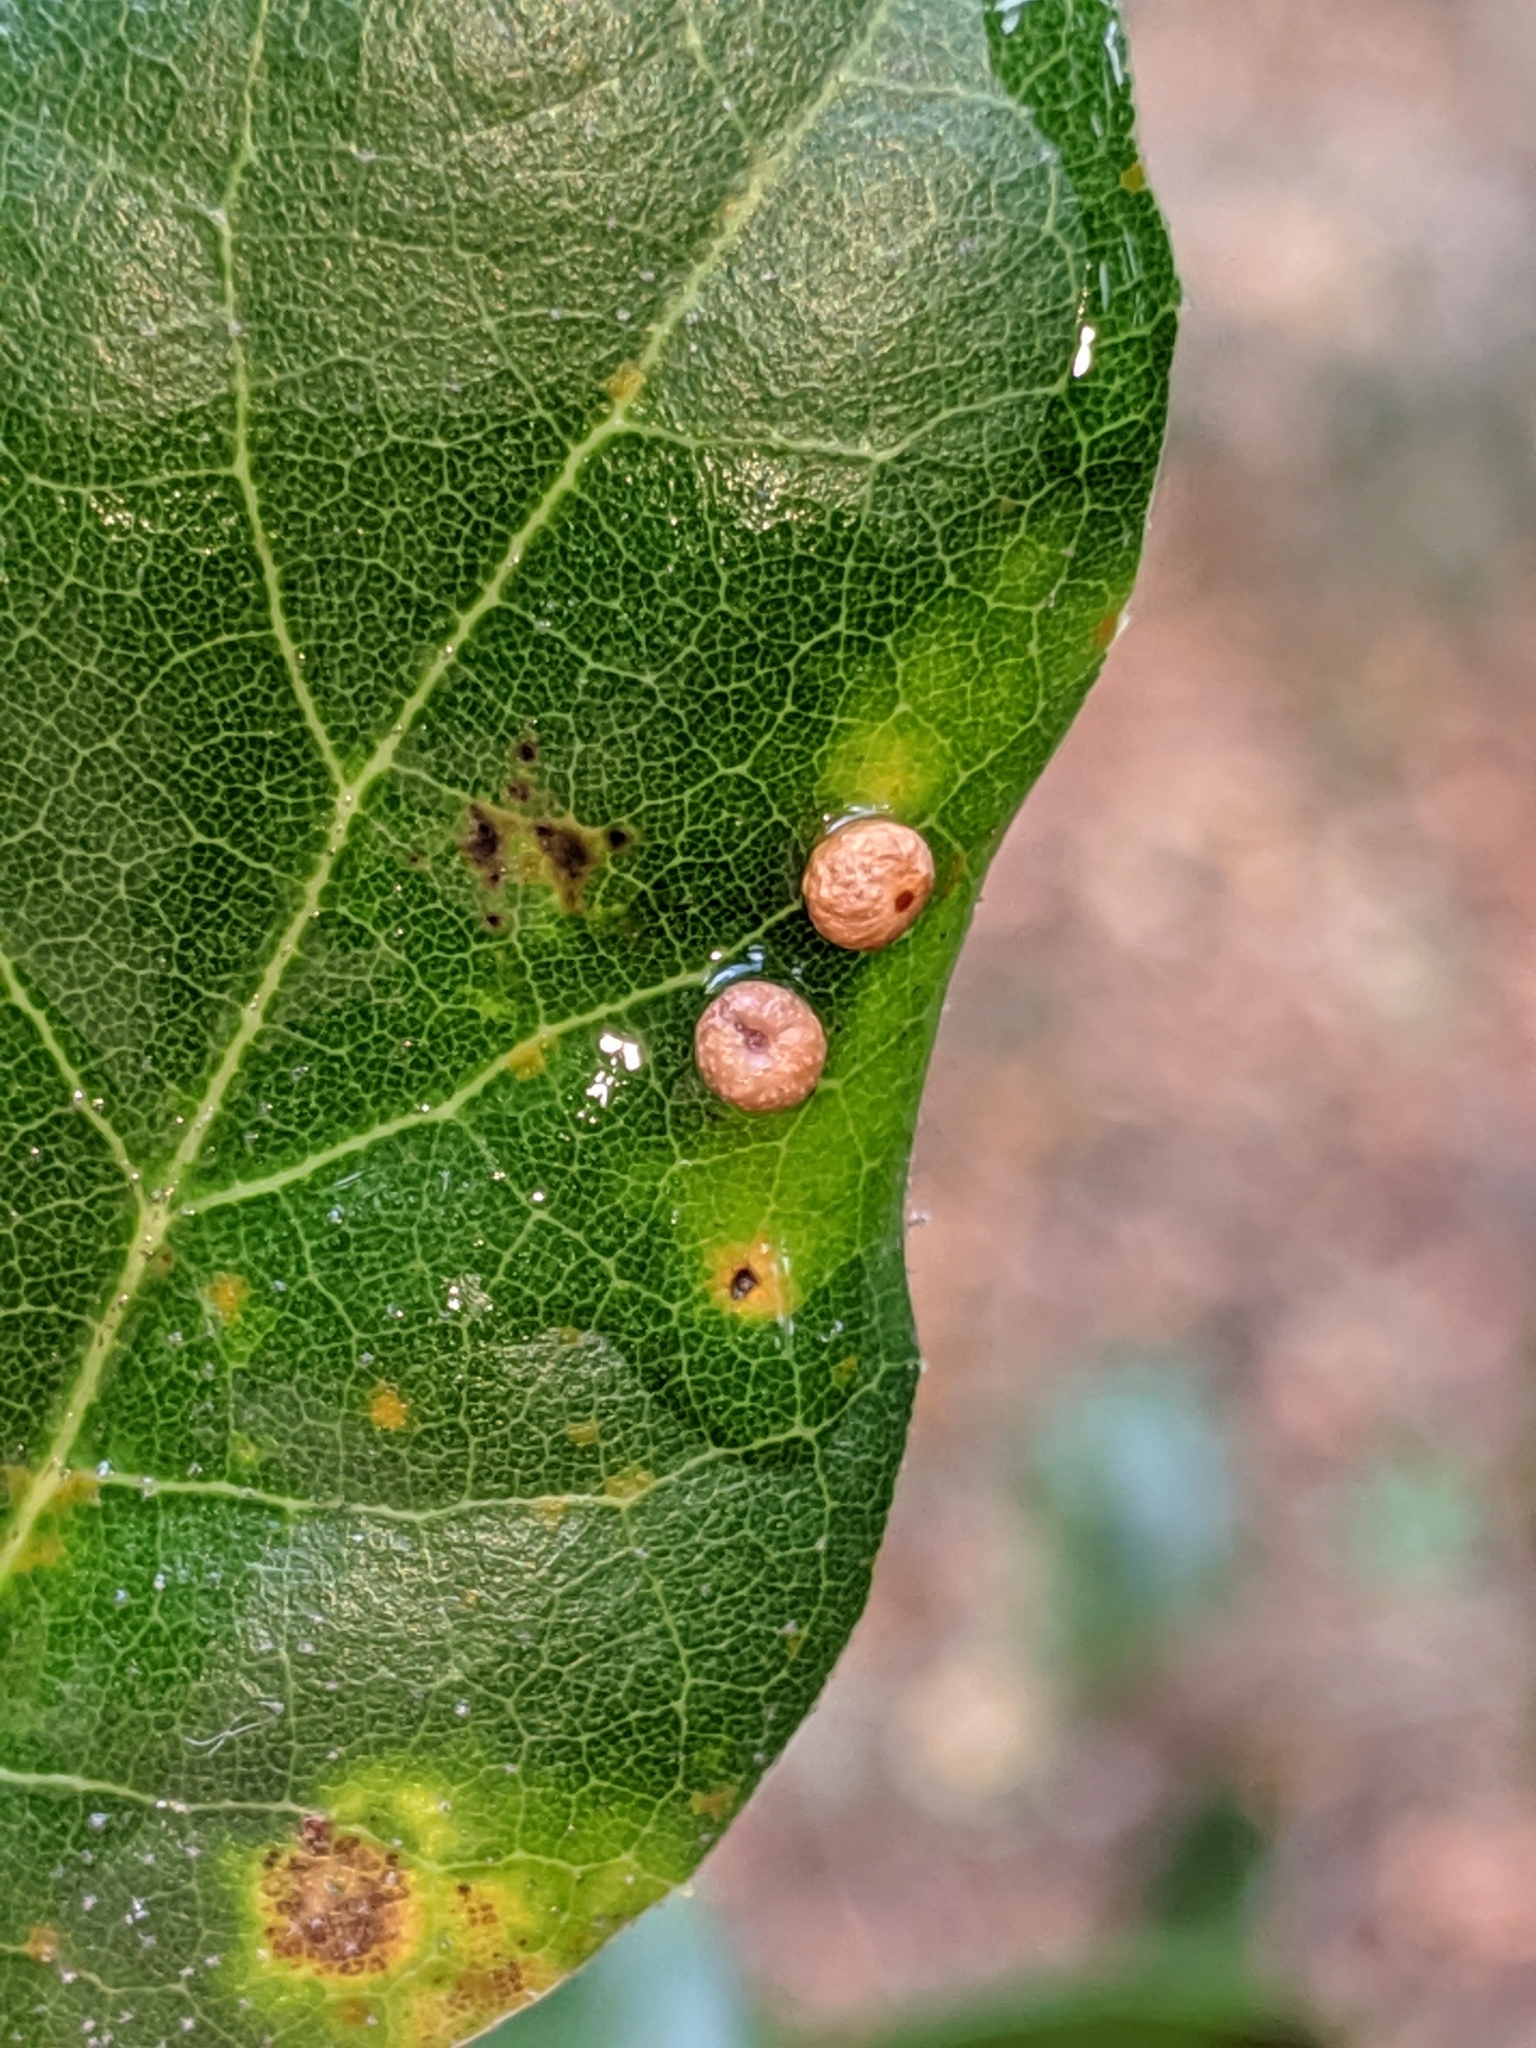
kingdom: Animalia
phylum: Arthropoda
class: Insecta
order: Hymenoptera
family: Cynipidae
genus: Dryocosmus
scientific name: Dryocosmus
